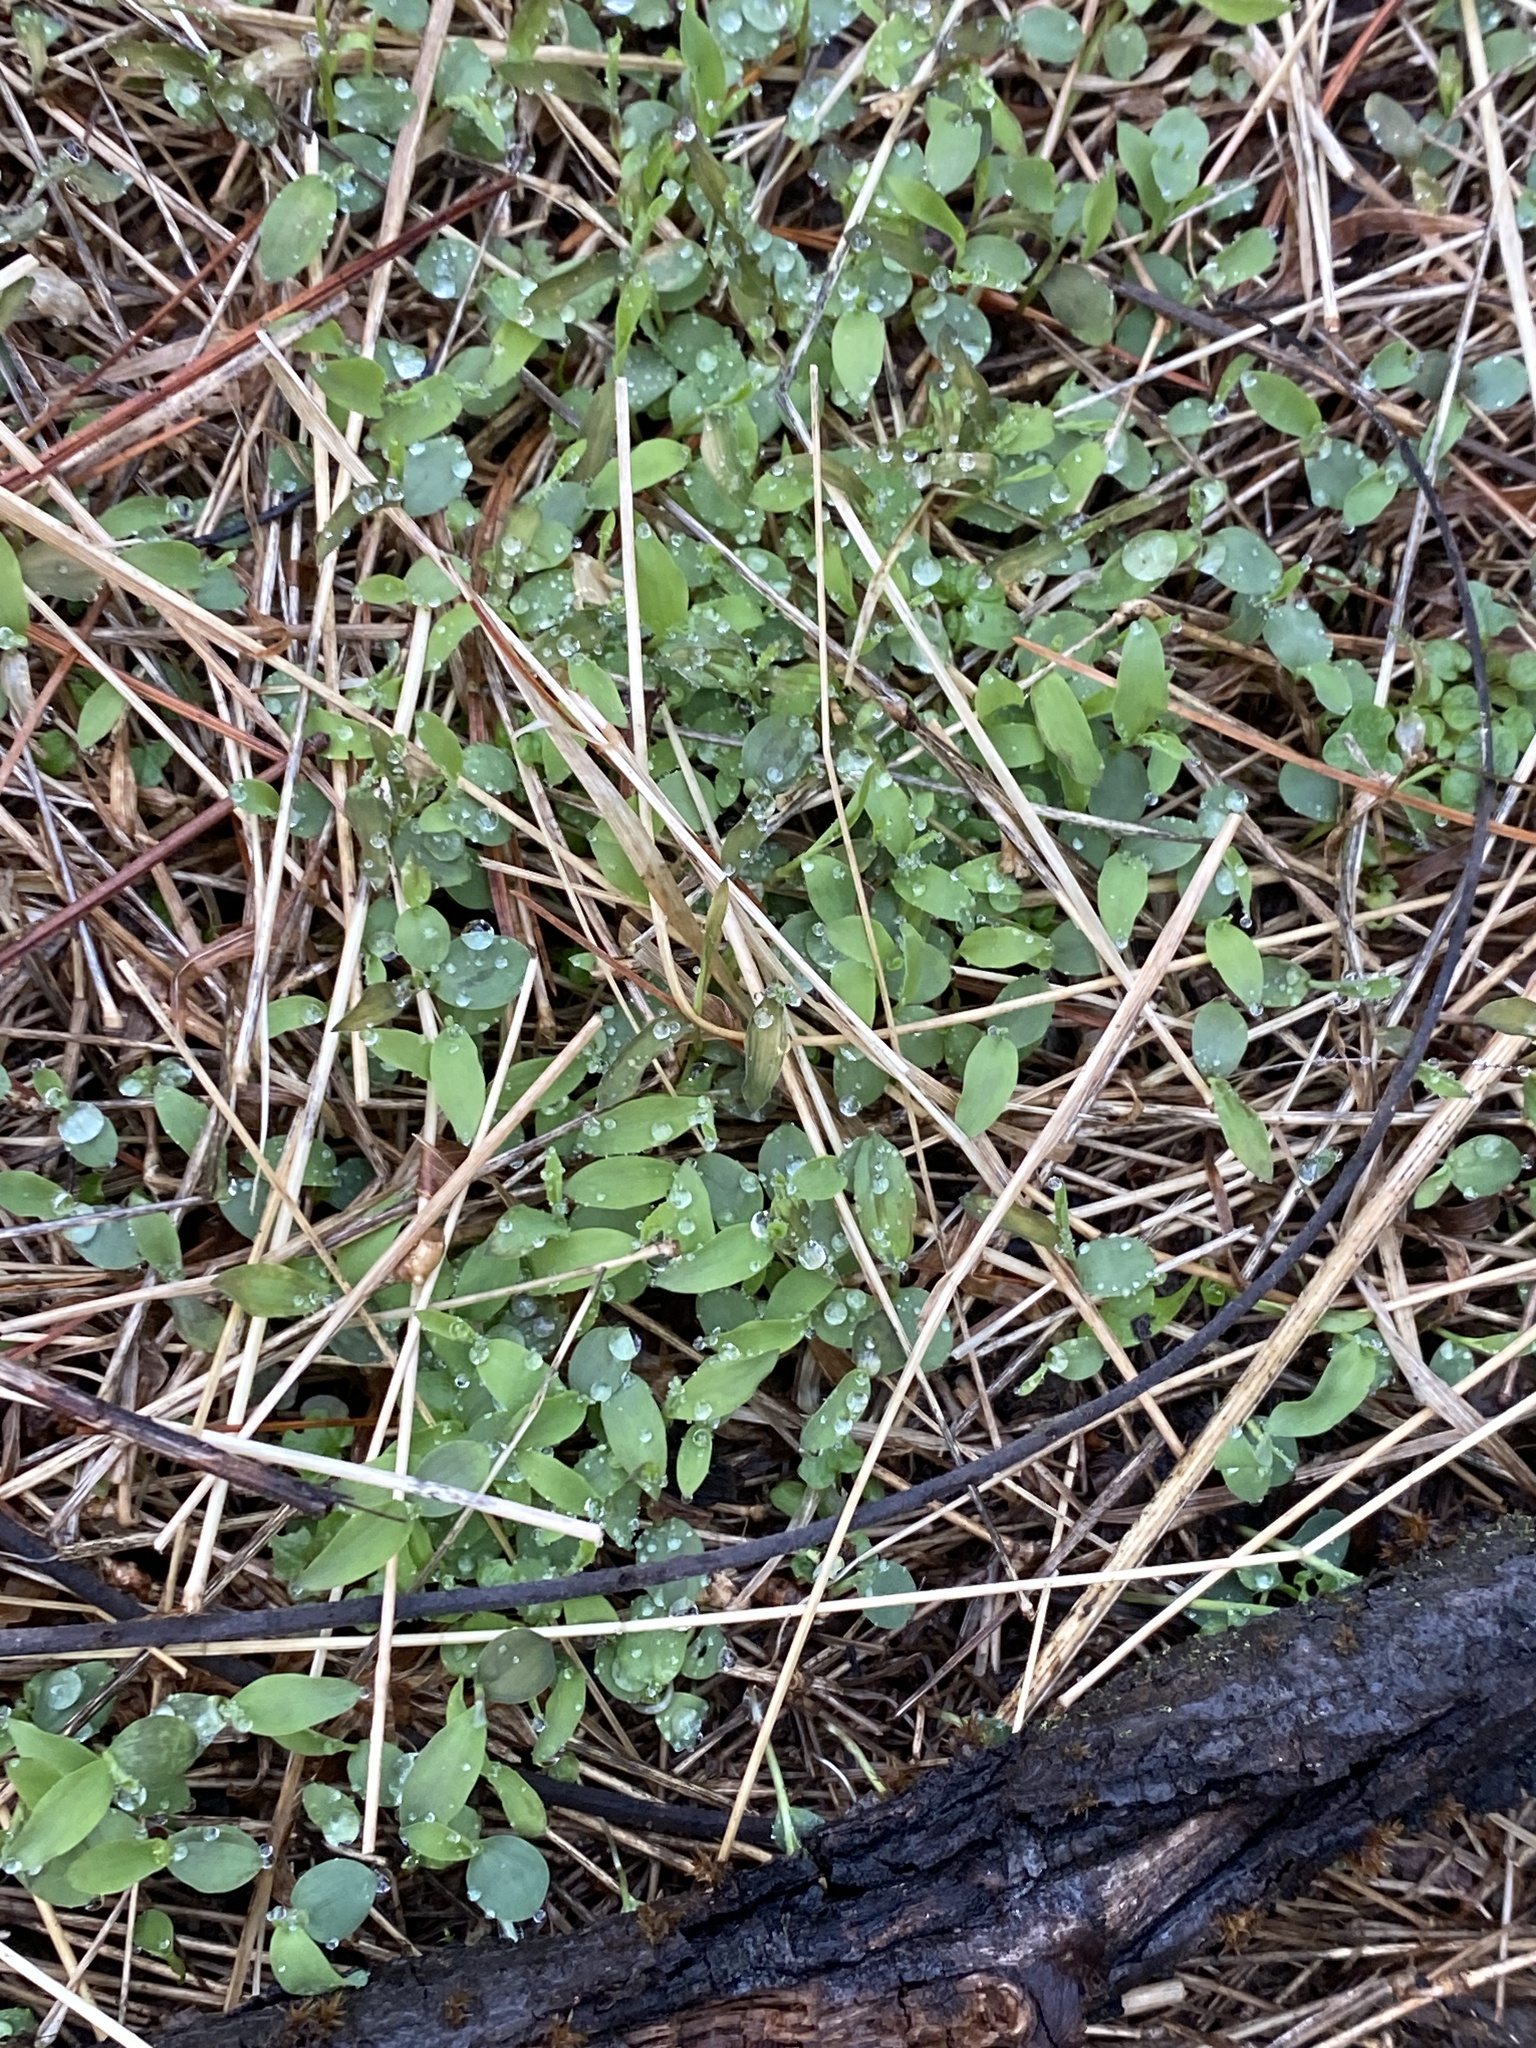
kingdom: Plantae
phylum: Tracheophyta
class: Liliopsida
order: Poales
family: Poaceae
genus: Microstegium
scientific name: Microstegium vimineum
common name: Japanese stiltgrass
